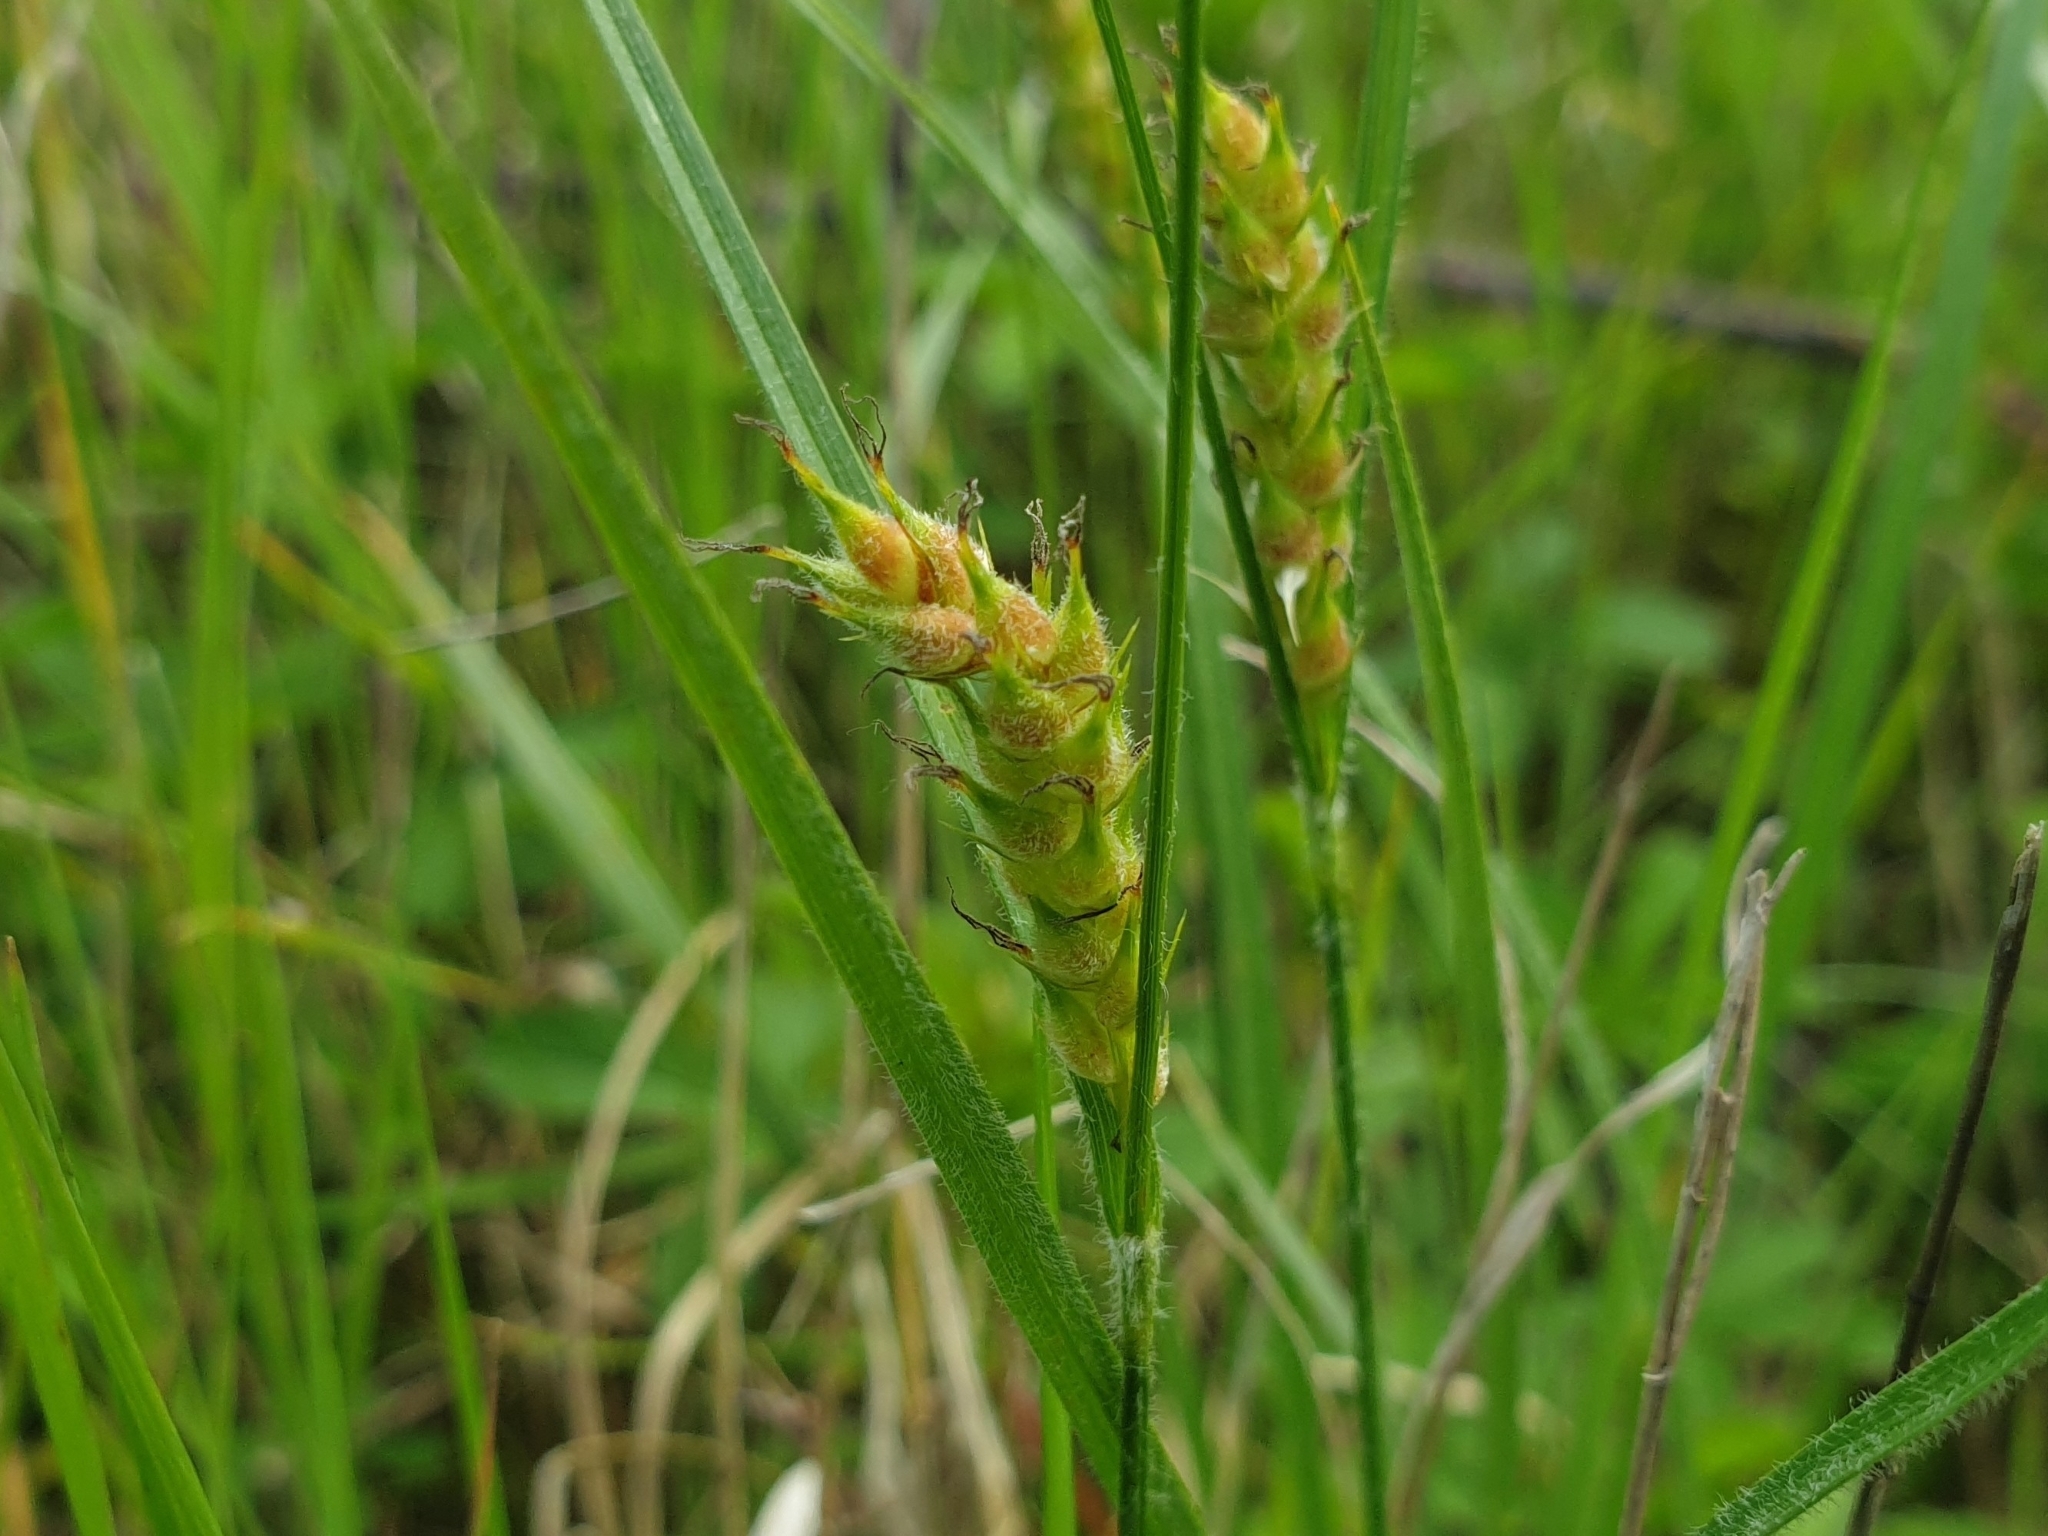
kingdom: Plantae
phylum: Tracheophyta
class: Liliopsida
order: Poales
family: Cyperaceae
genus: Carex
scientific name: Carex hirta
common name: Hairy sedge
